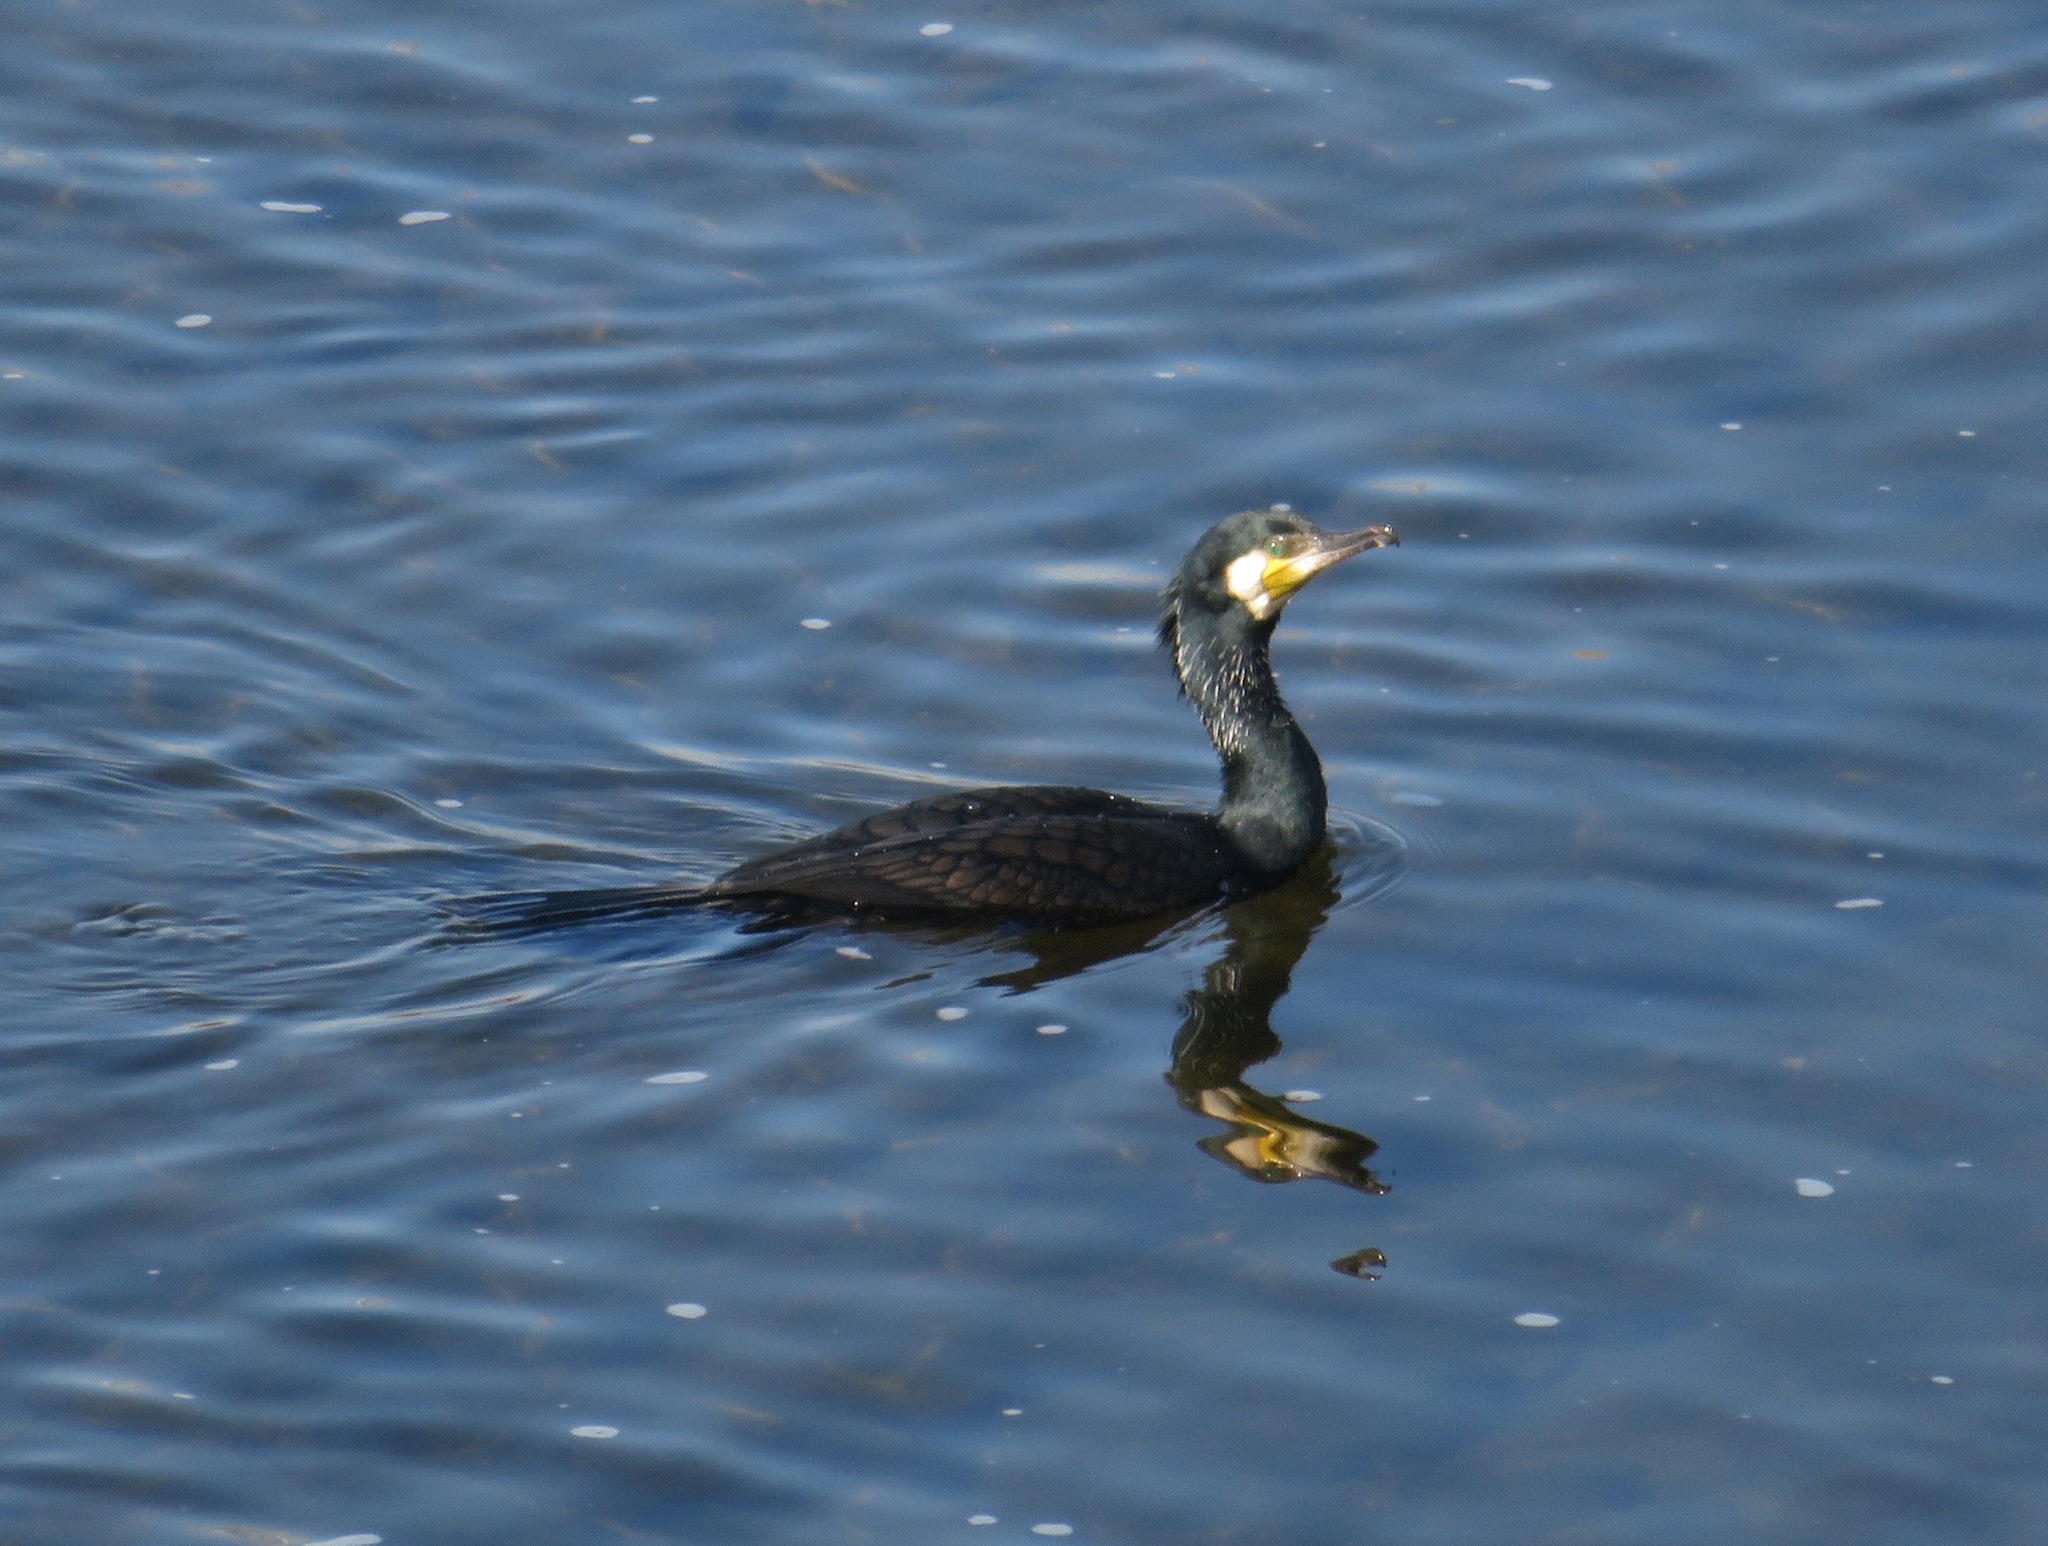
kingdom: Animalia
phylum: Chordata
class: Aves
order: Suliformes
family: Phalacrocoracidae
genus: Phalacrocorax
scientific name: Phalacrocorax carbo
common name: Great cormorant
